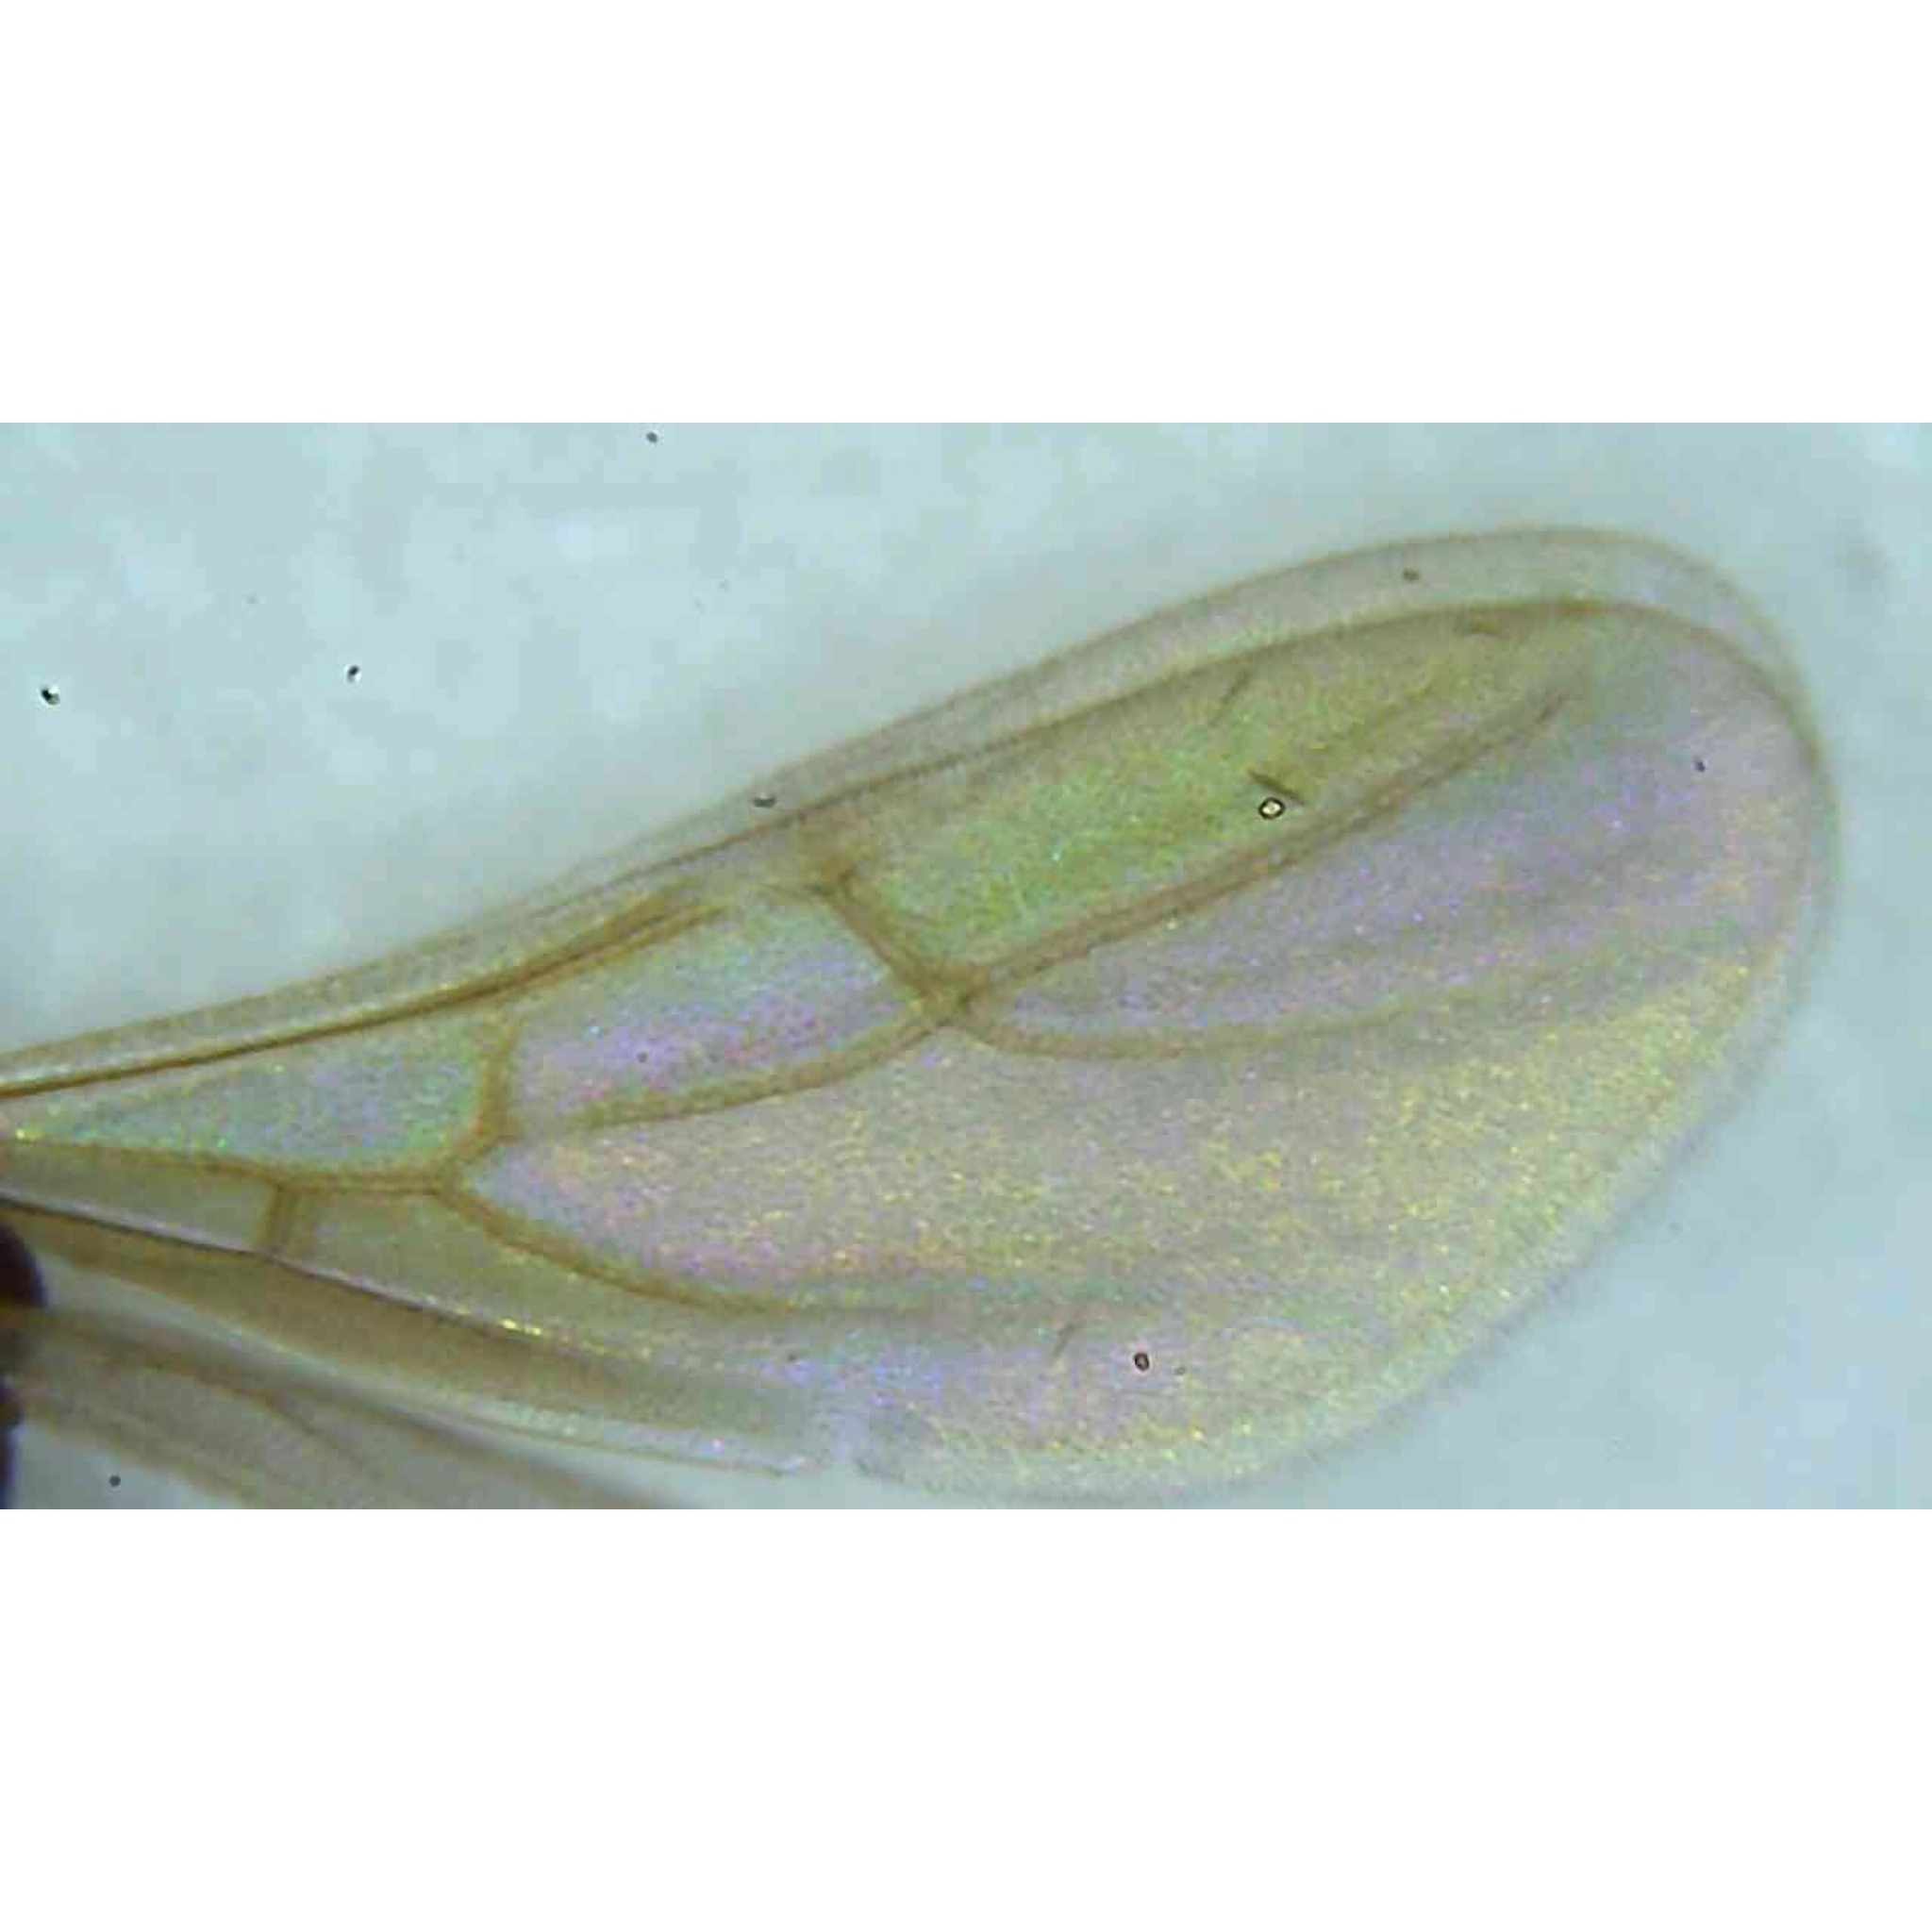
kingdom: Animalia
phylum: Arthropoda
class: Insecta
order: Hymenoptera
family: Formicidae
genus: Brachymyrmex
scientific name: Brachymyrmex depilis
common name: Hairless rover ant
